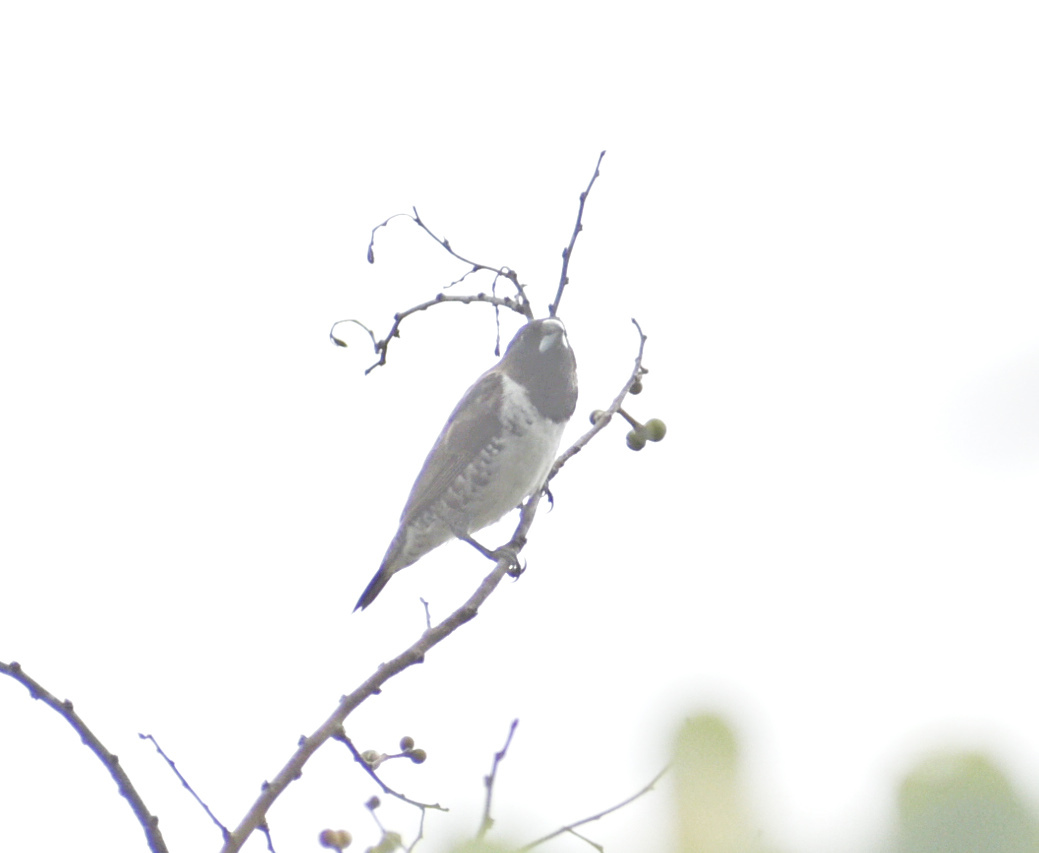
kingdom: Animalia
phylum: Chordata
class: Aves
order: Passeriformes
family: Estrildidae
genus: Lonchura
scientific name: Lonchura cucullata
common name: Bronze mannikin
